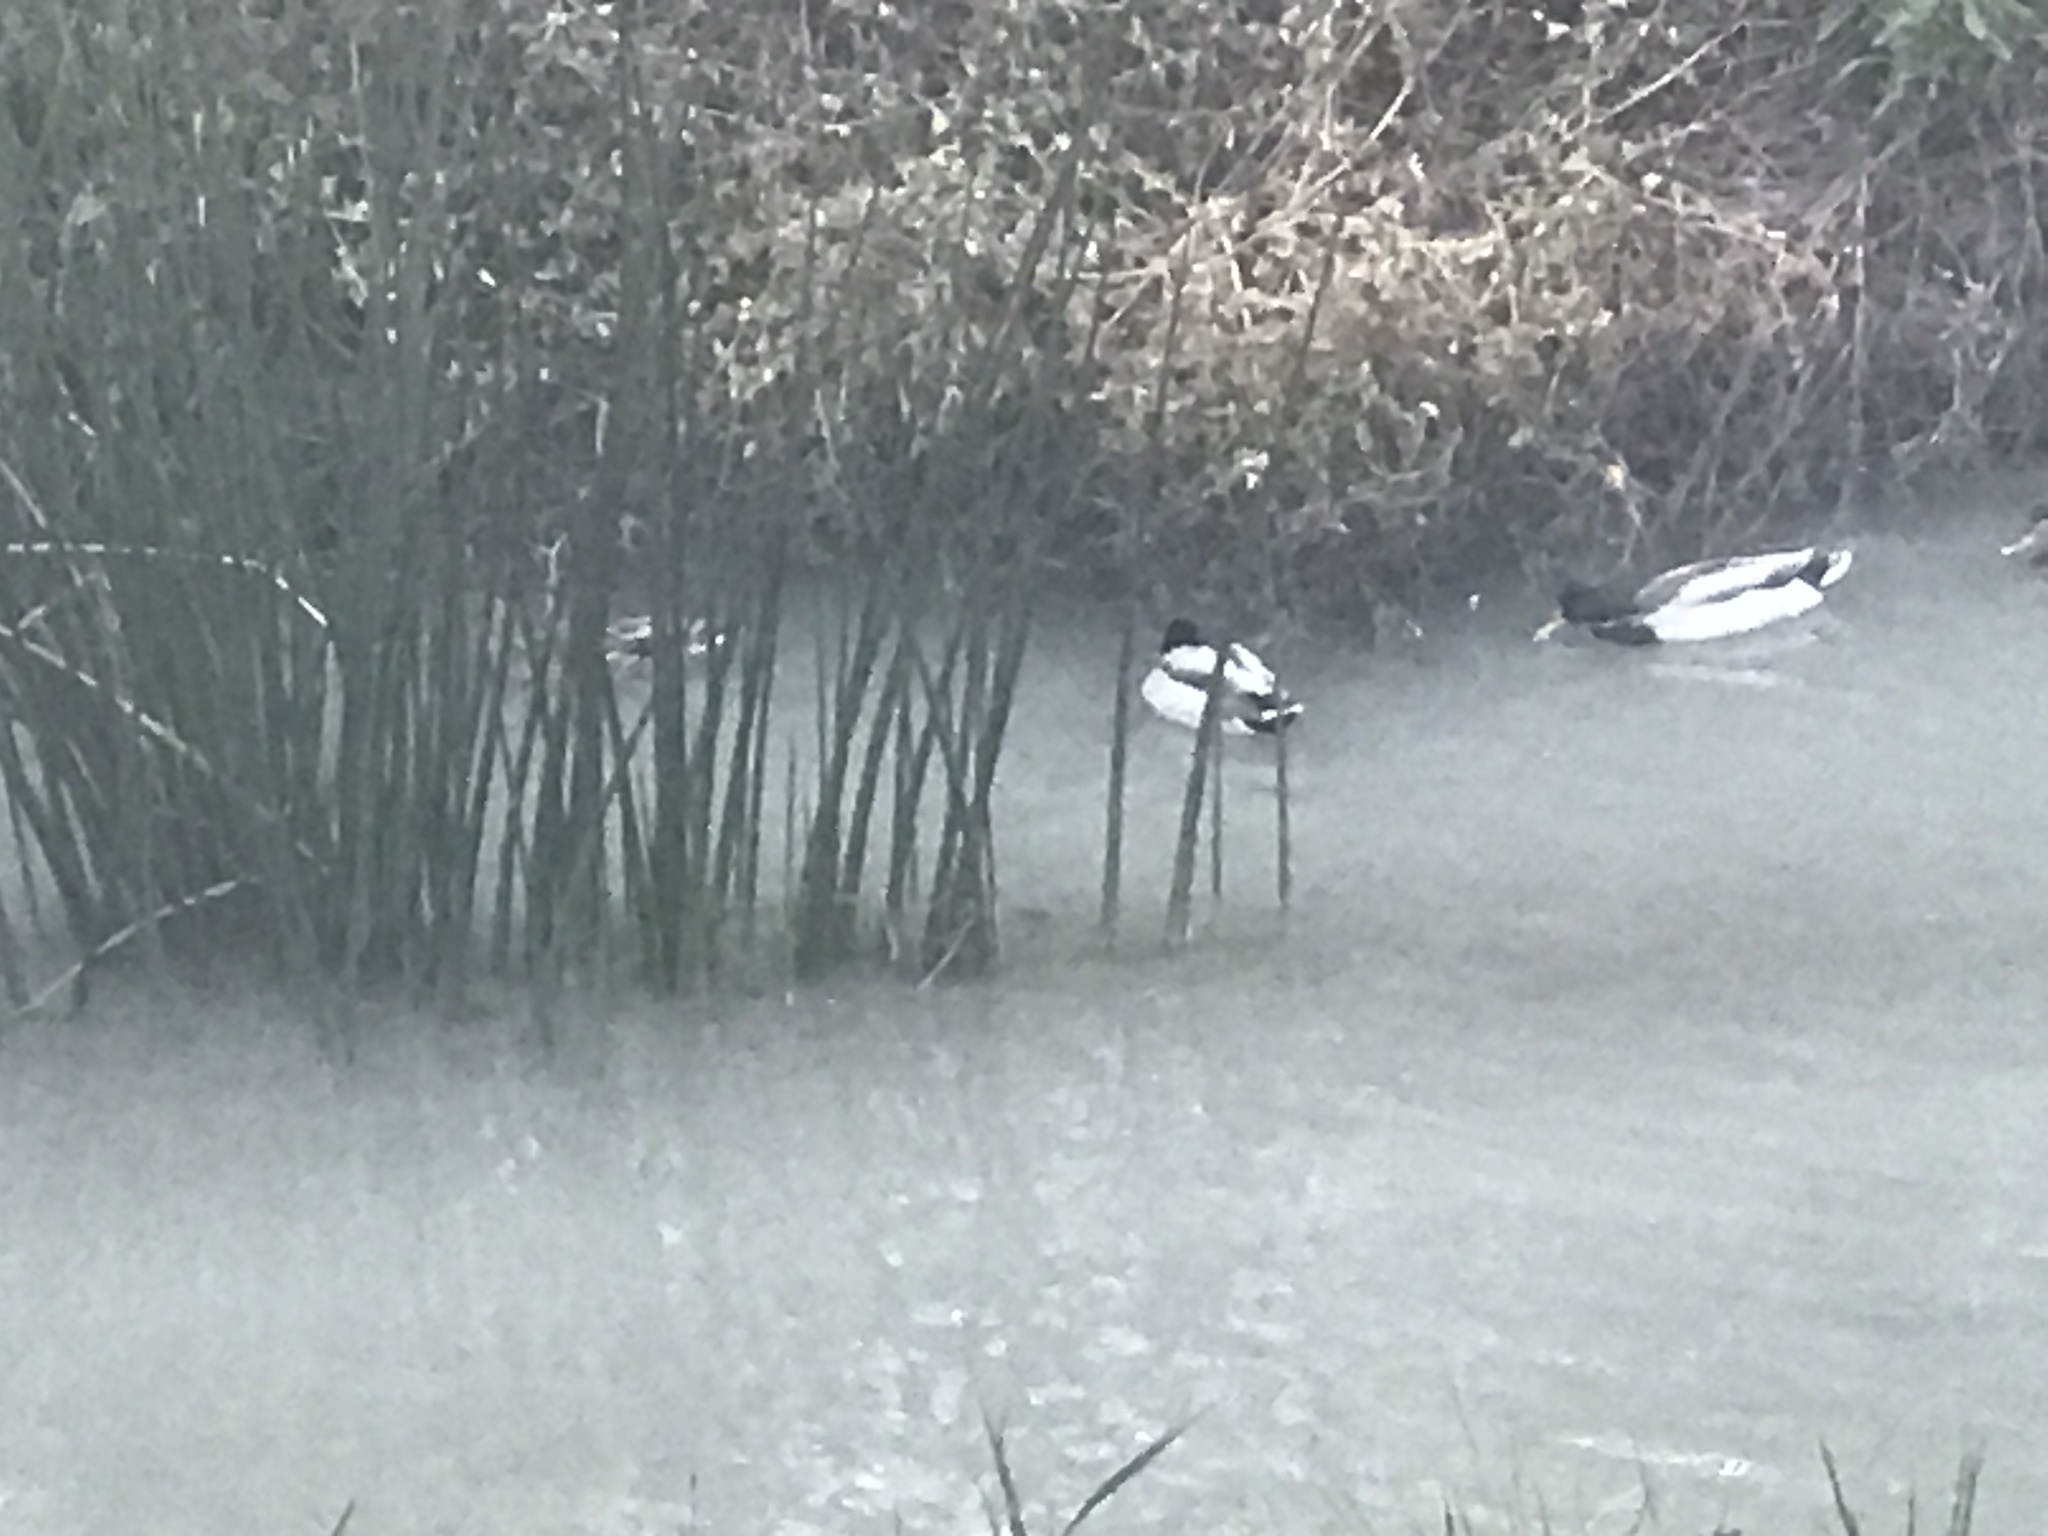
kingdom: Animalia
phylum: Chordata
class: Aves
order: Anseriformes
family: Anatidae
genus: Anas
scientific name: Anas platyrhynchos
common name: Mallard
